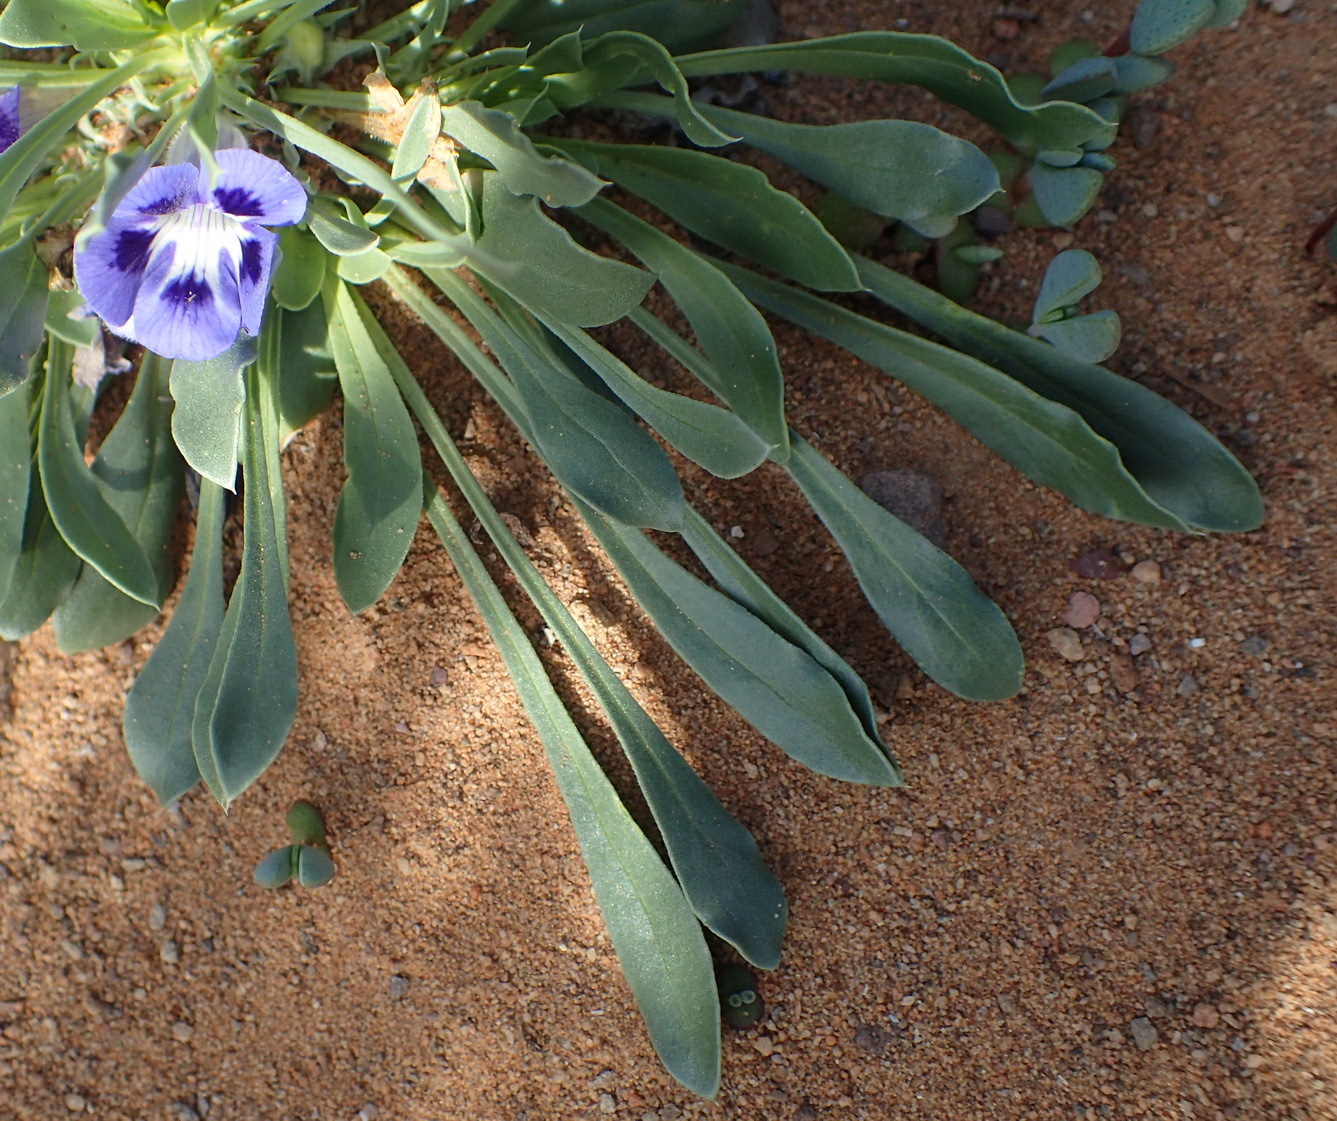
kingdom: Plantae
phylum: Tracheophyta
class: Magnoliopsida
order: Lamiales
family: Scrophulariaceae
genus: Aptosimum
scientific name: Aptosimum indivisum
